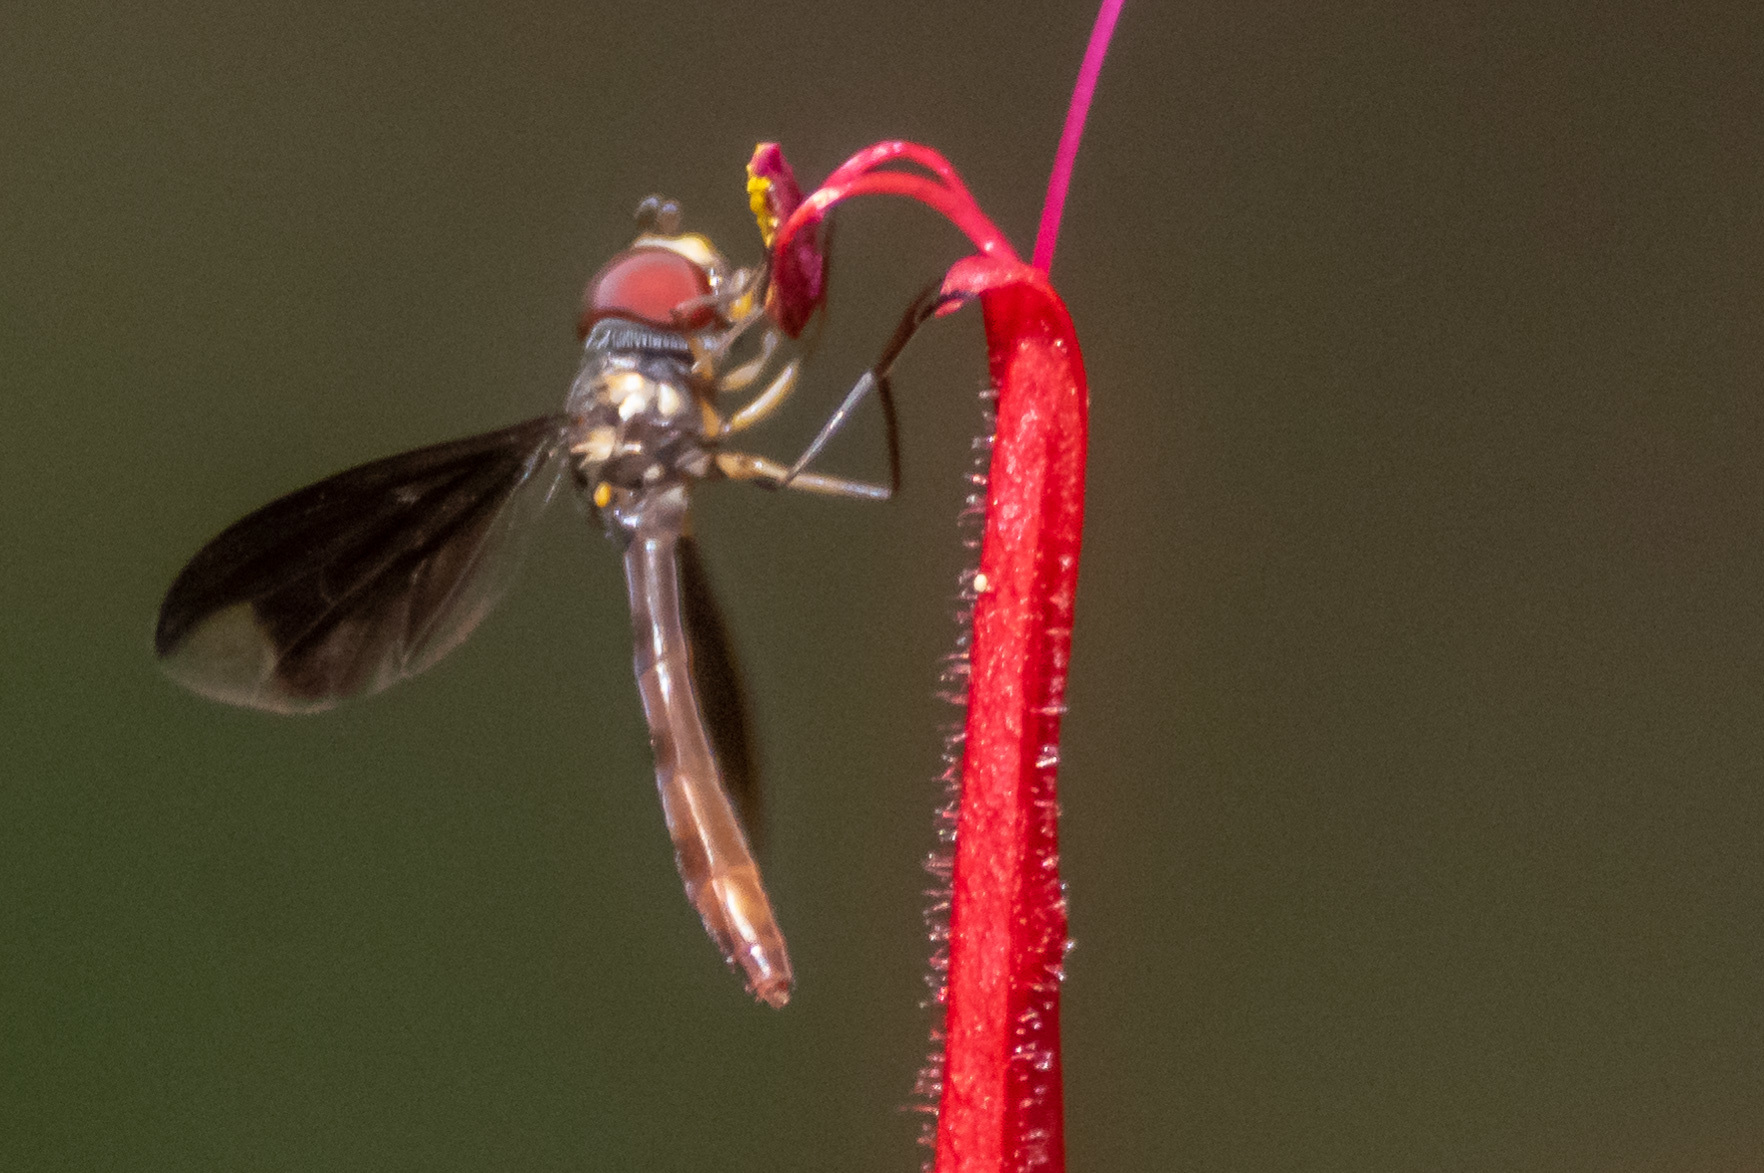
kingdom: Animalia
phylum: Arthropoda
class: Insecta
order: Diptera
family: Syrphidae
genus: Ocyptamus
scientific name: Ocyptamus fuscipennis
